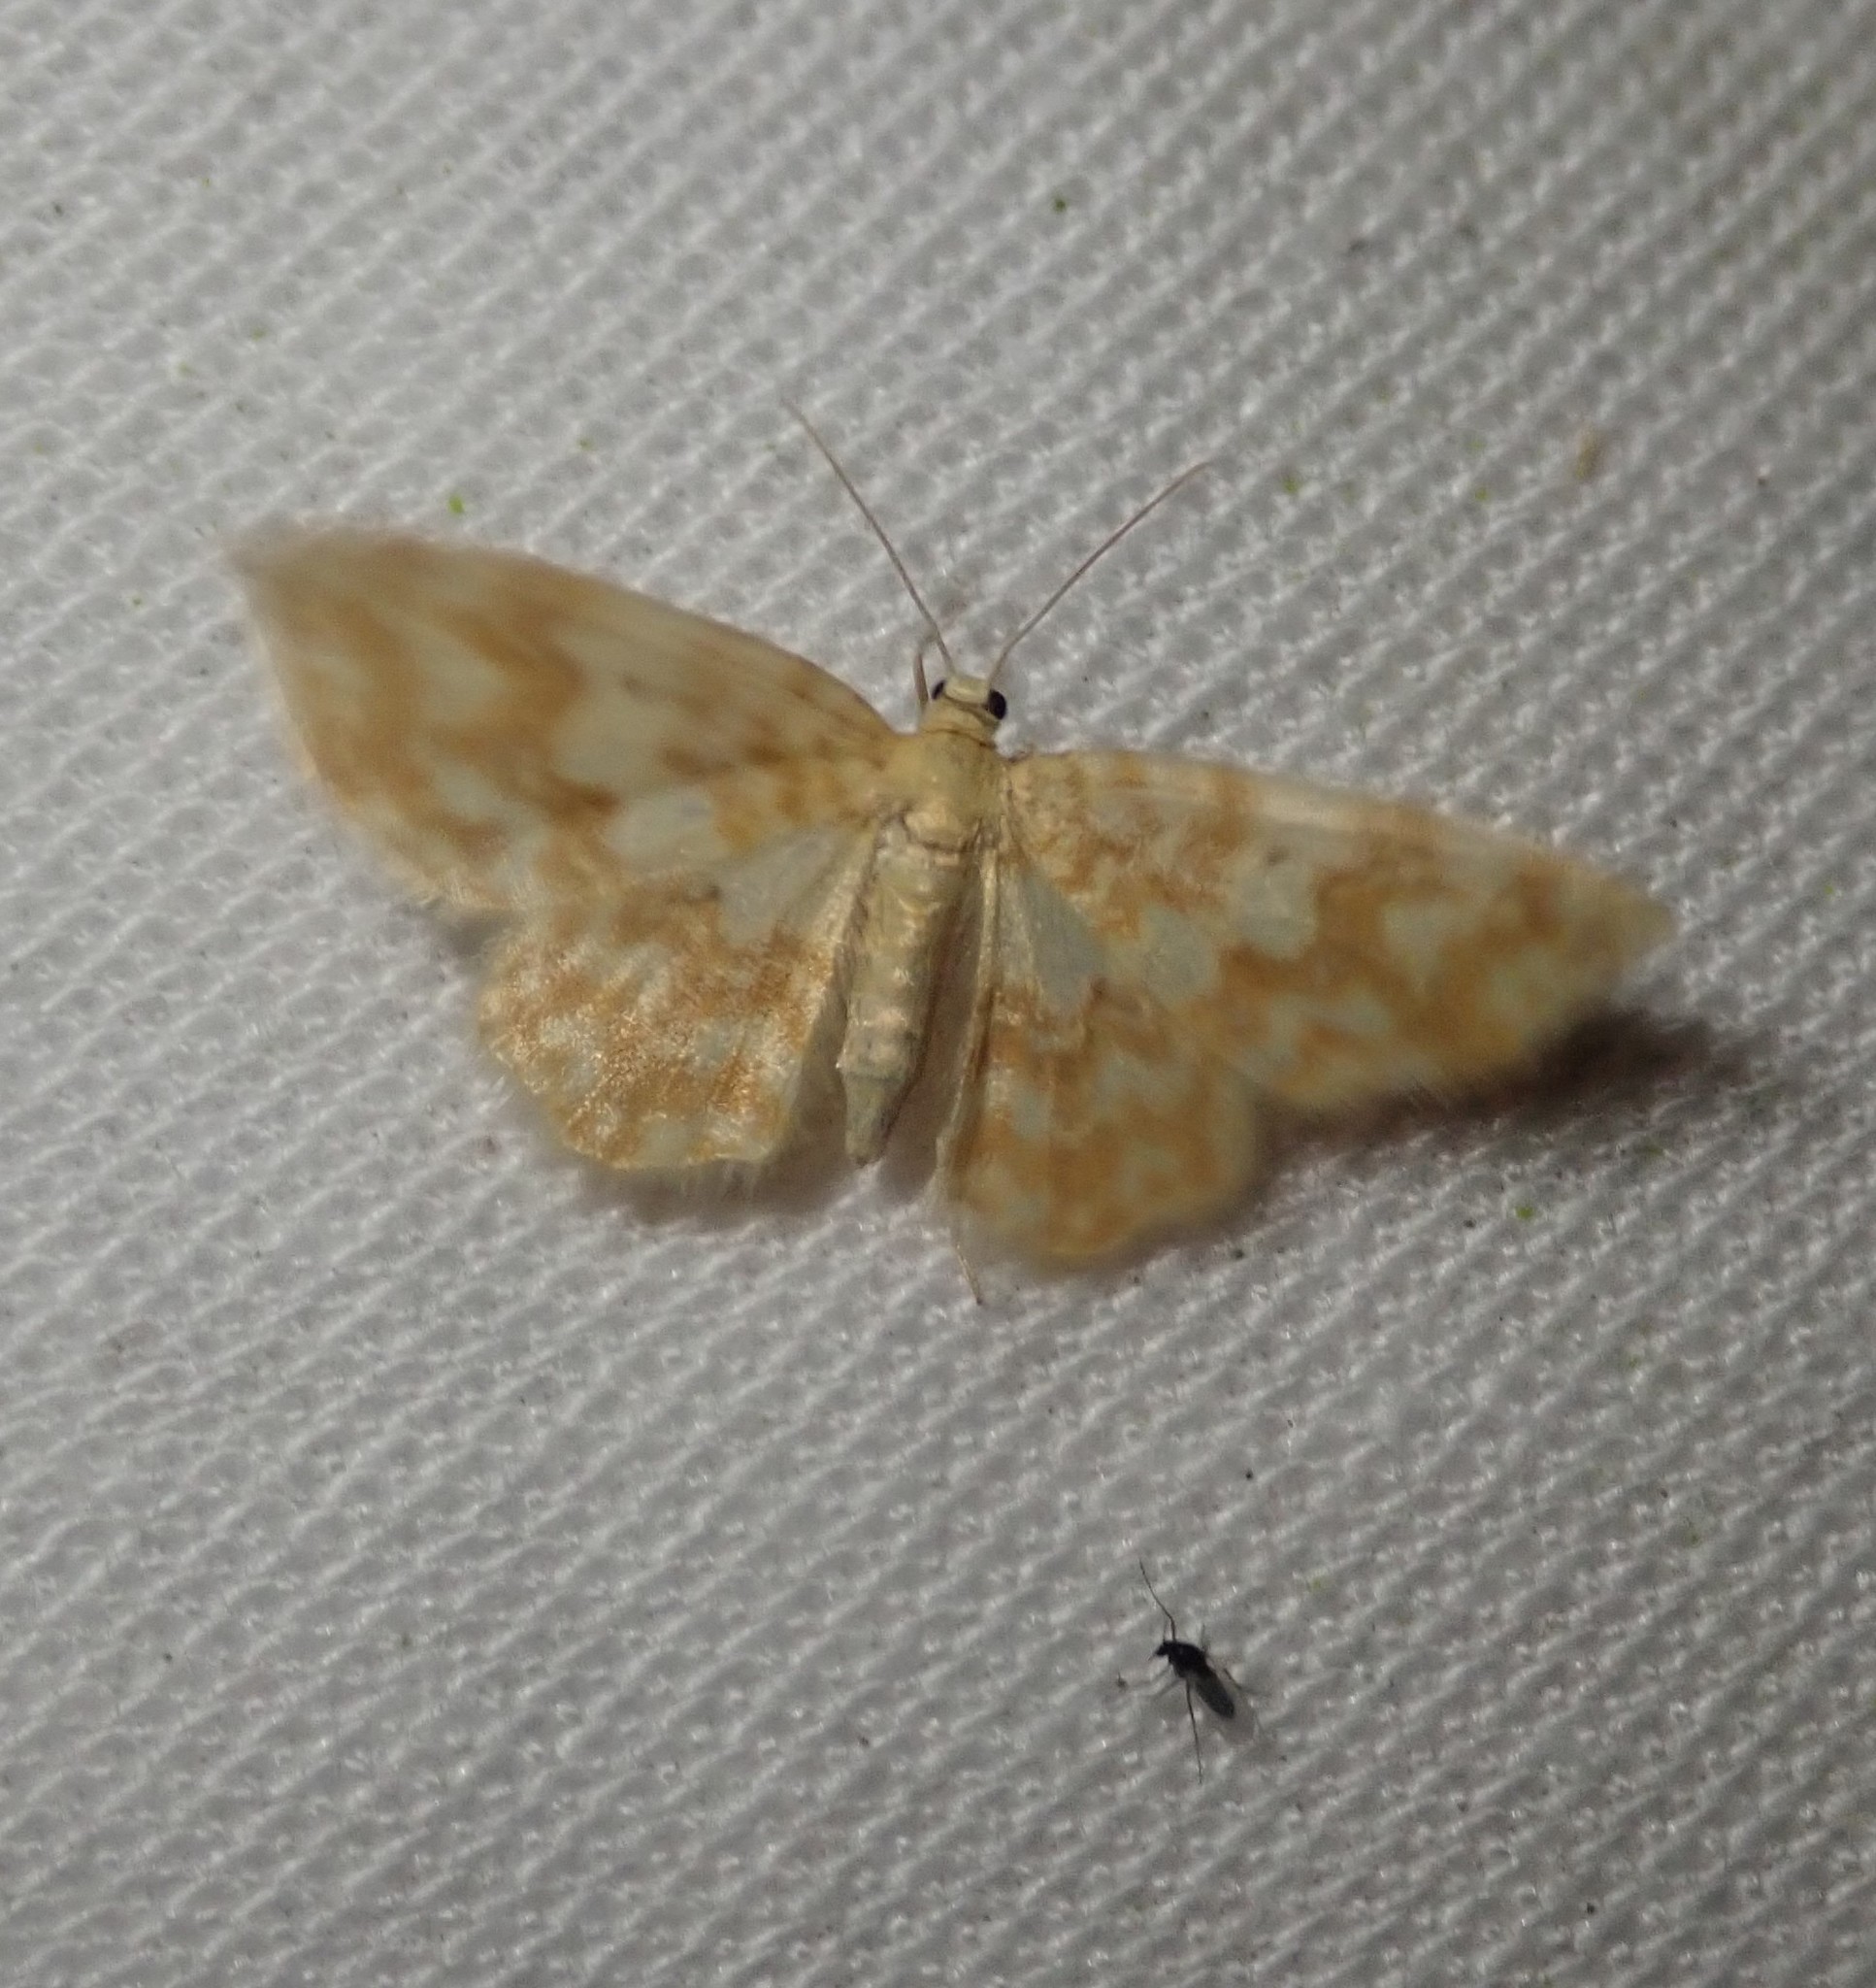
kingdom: Animalia
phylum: Arthropoda
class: Insecta
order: Lepidoptera
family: Geometridae
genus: Hydrelia
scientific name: Hydrelia flammeolaria
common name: Small yellow wave
